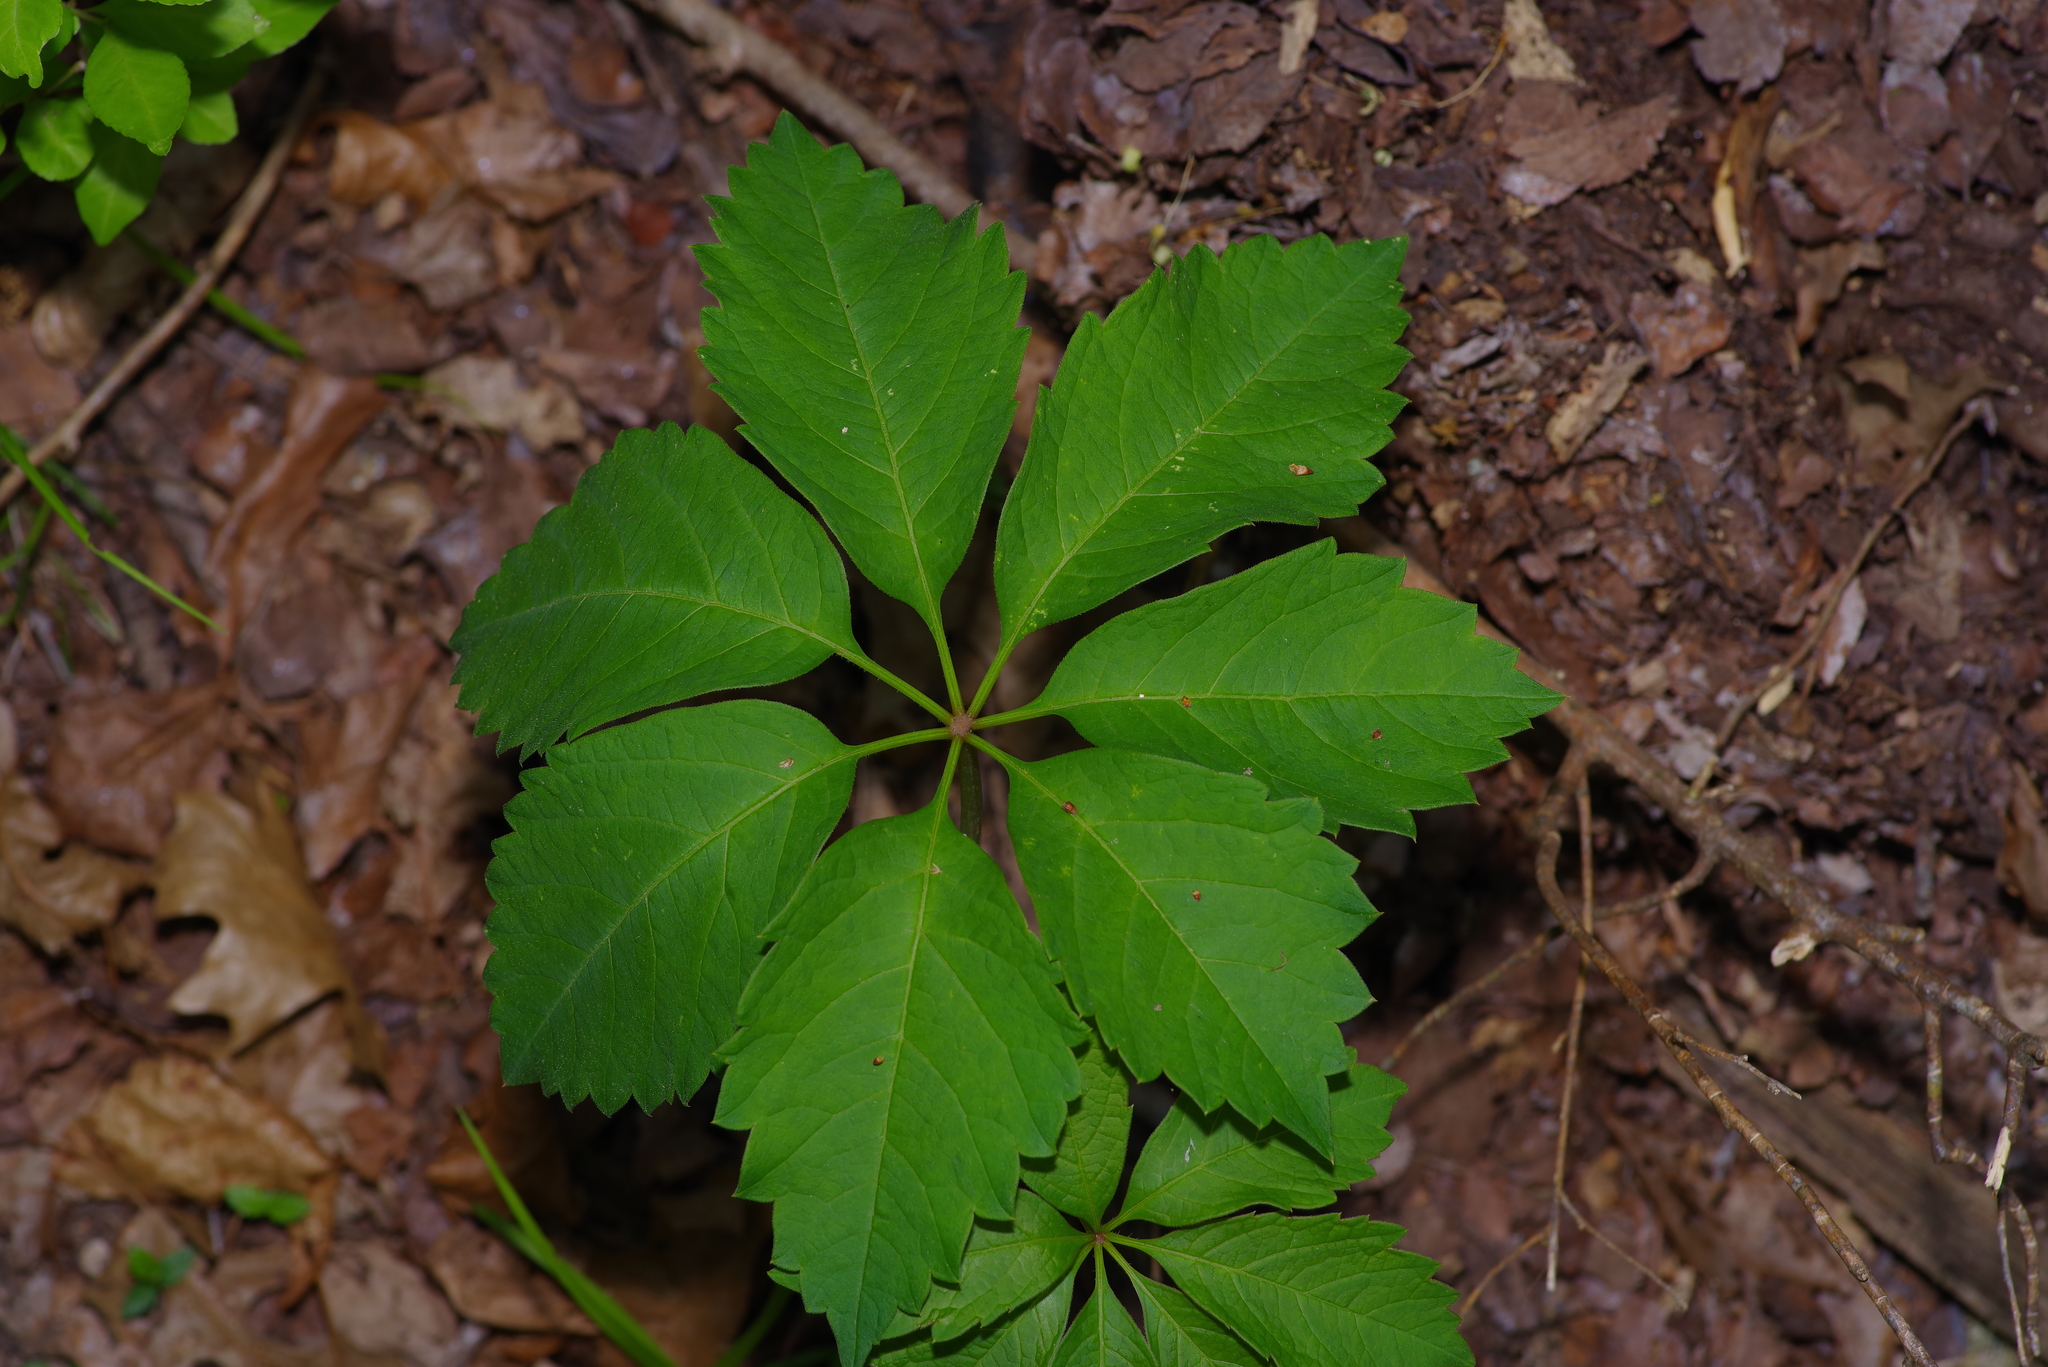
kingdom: Plantae
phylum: Tracheophyta
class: Magnoliopsida
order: Vitales
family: Vitaceae
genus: Parthenocissus
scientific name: Parthenocissus heptaphylla
